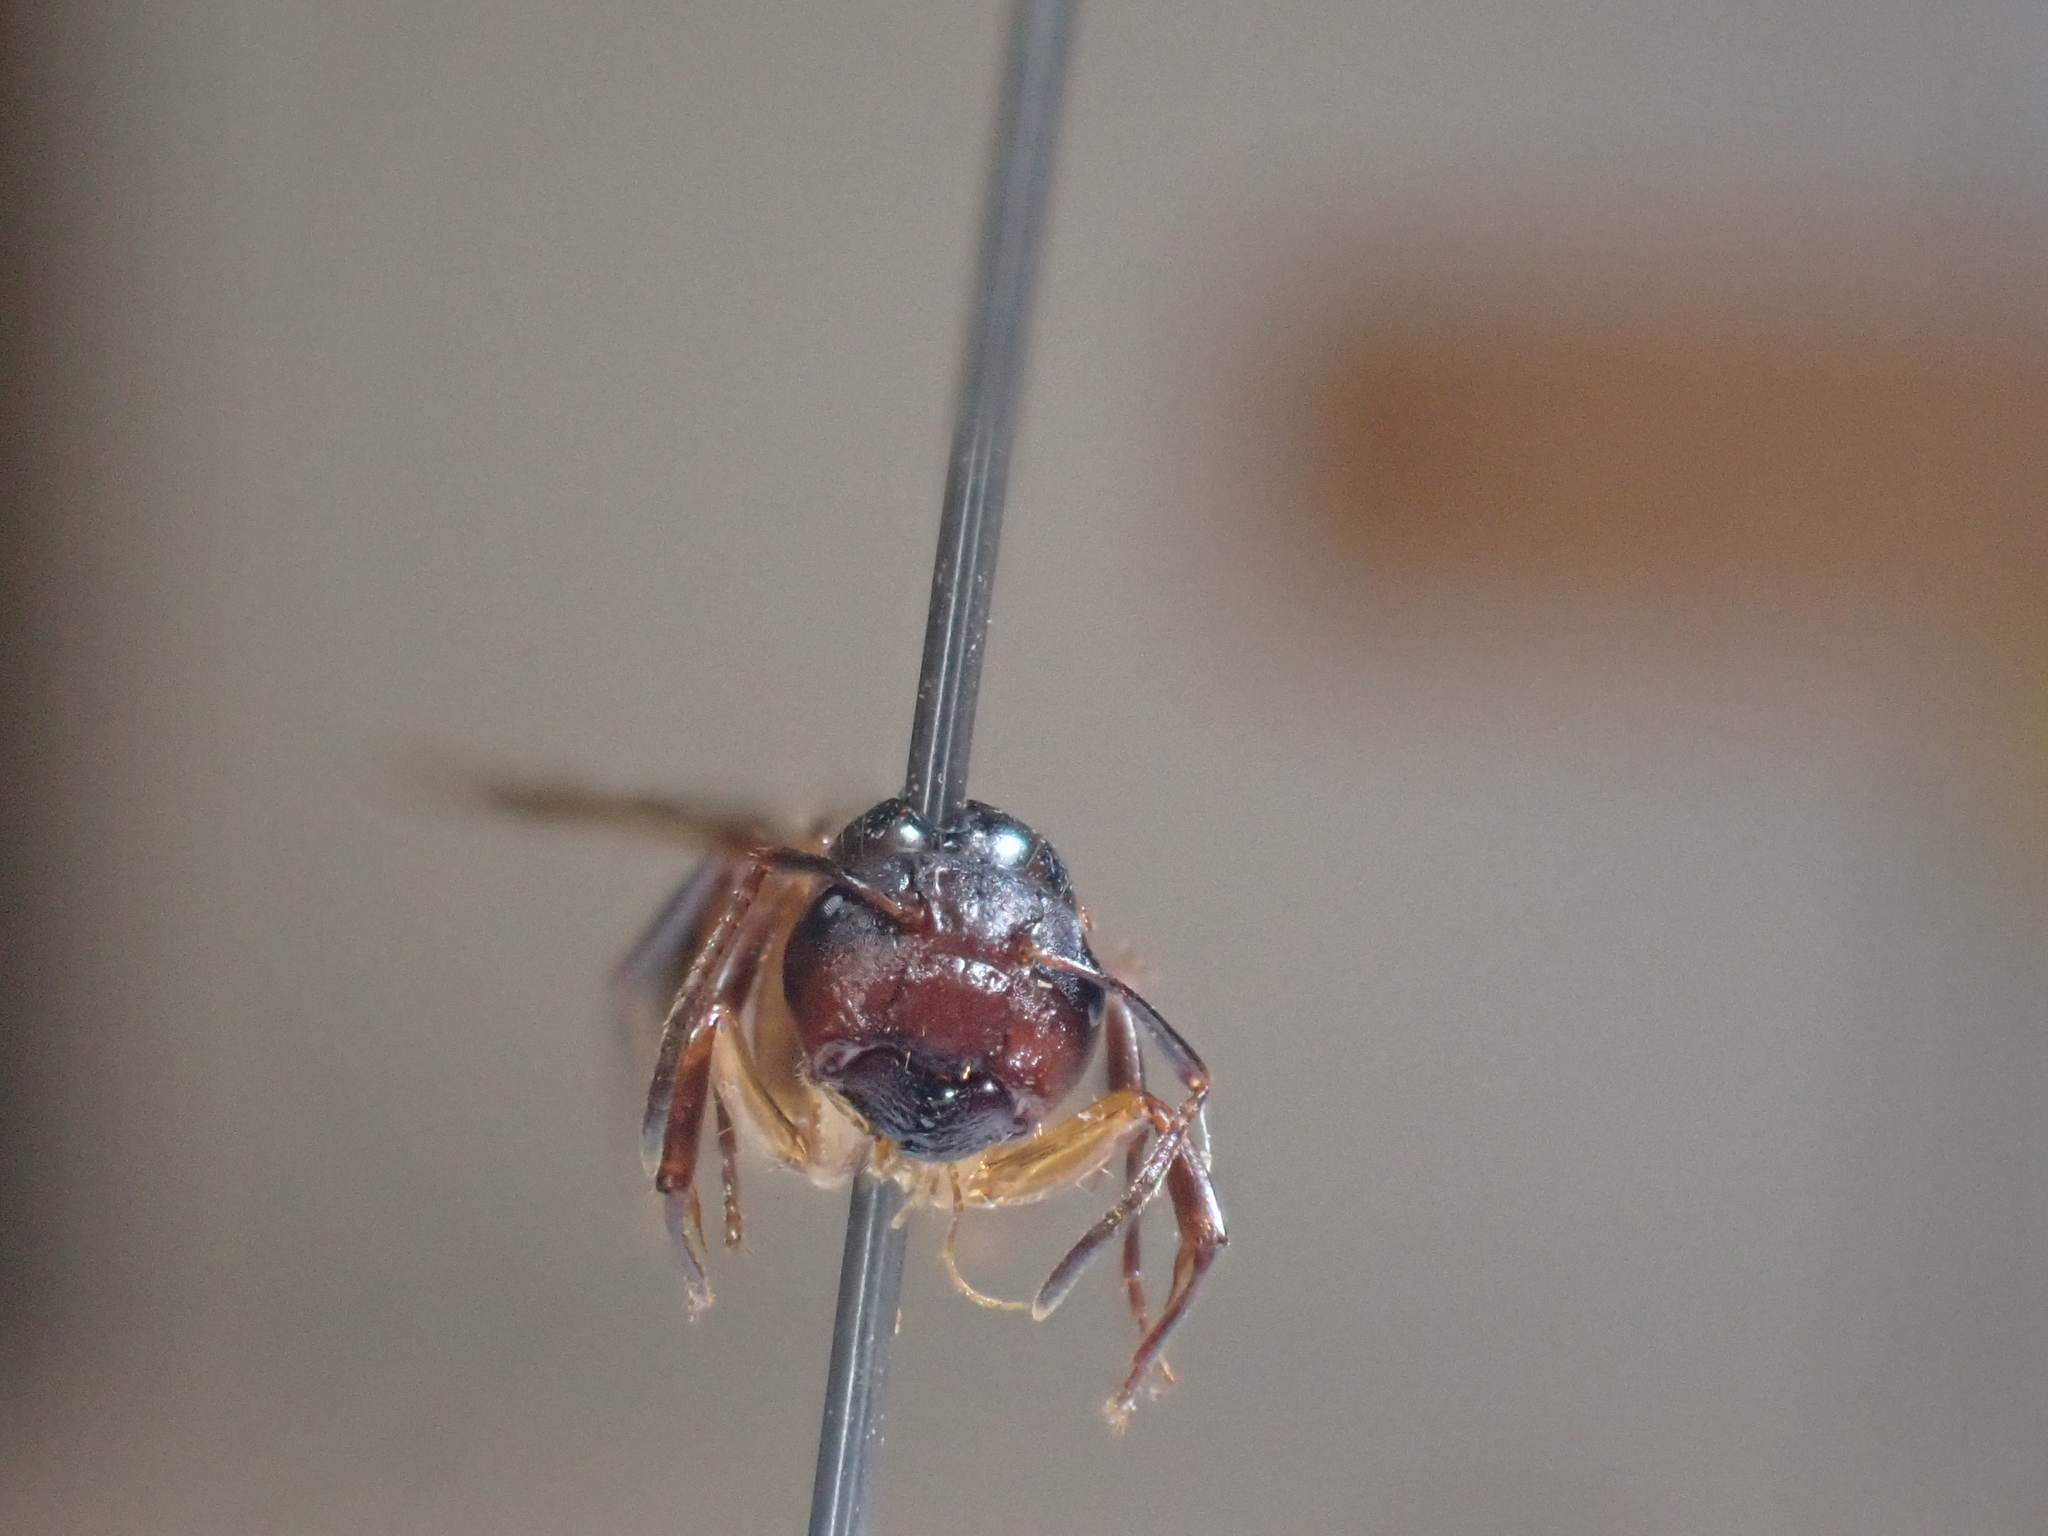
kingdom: Animalia
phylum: Arthropoda
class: Insecta
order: Hymenoptera
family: Formicidae
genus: Camponotus
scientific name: Camponotus subbarbatus
